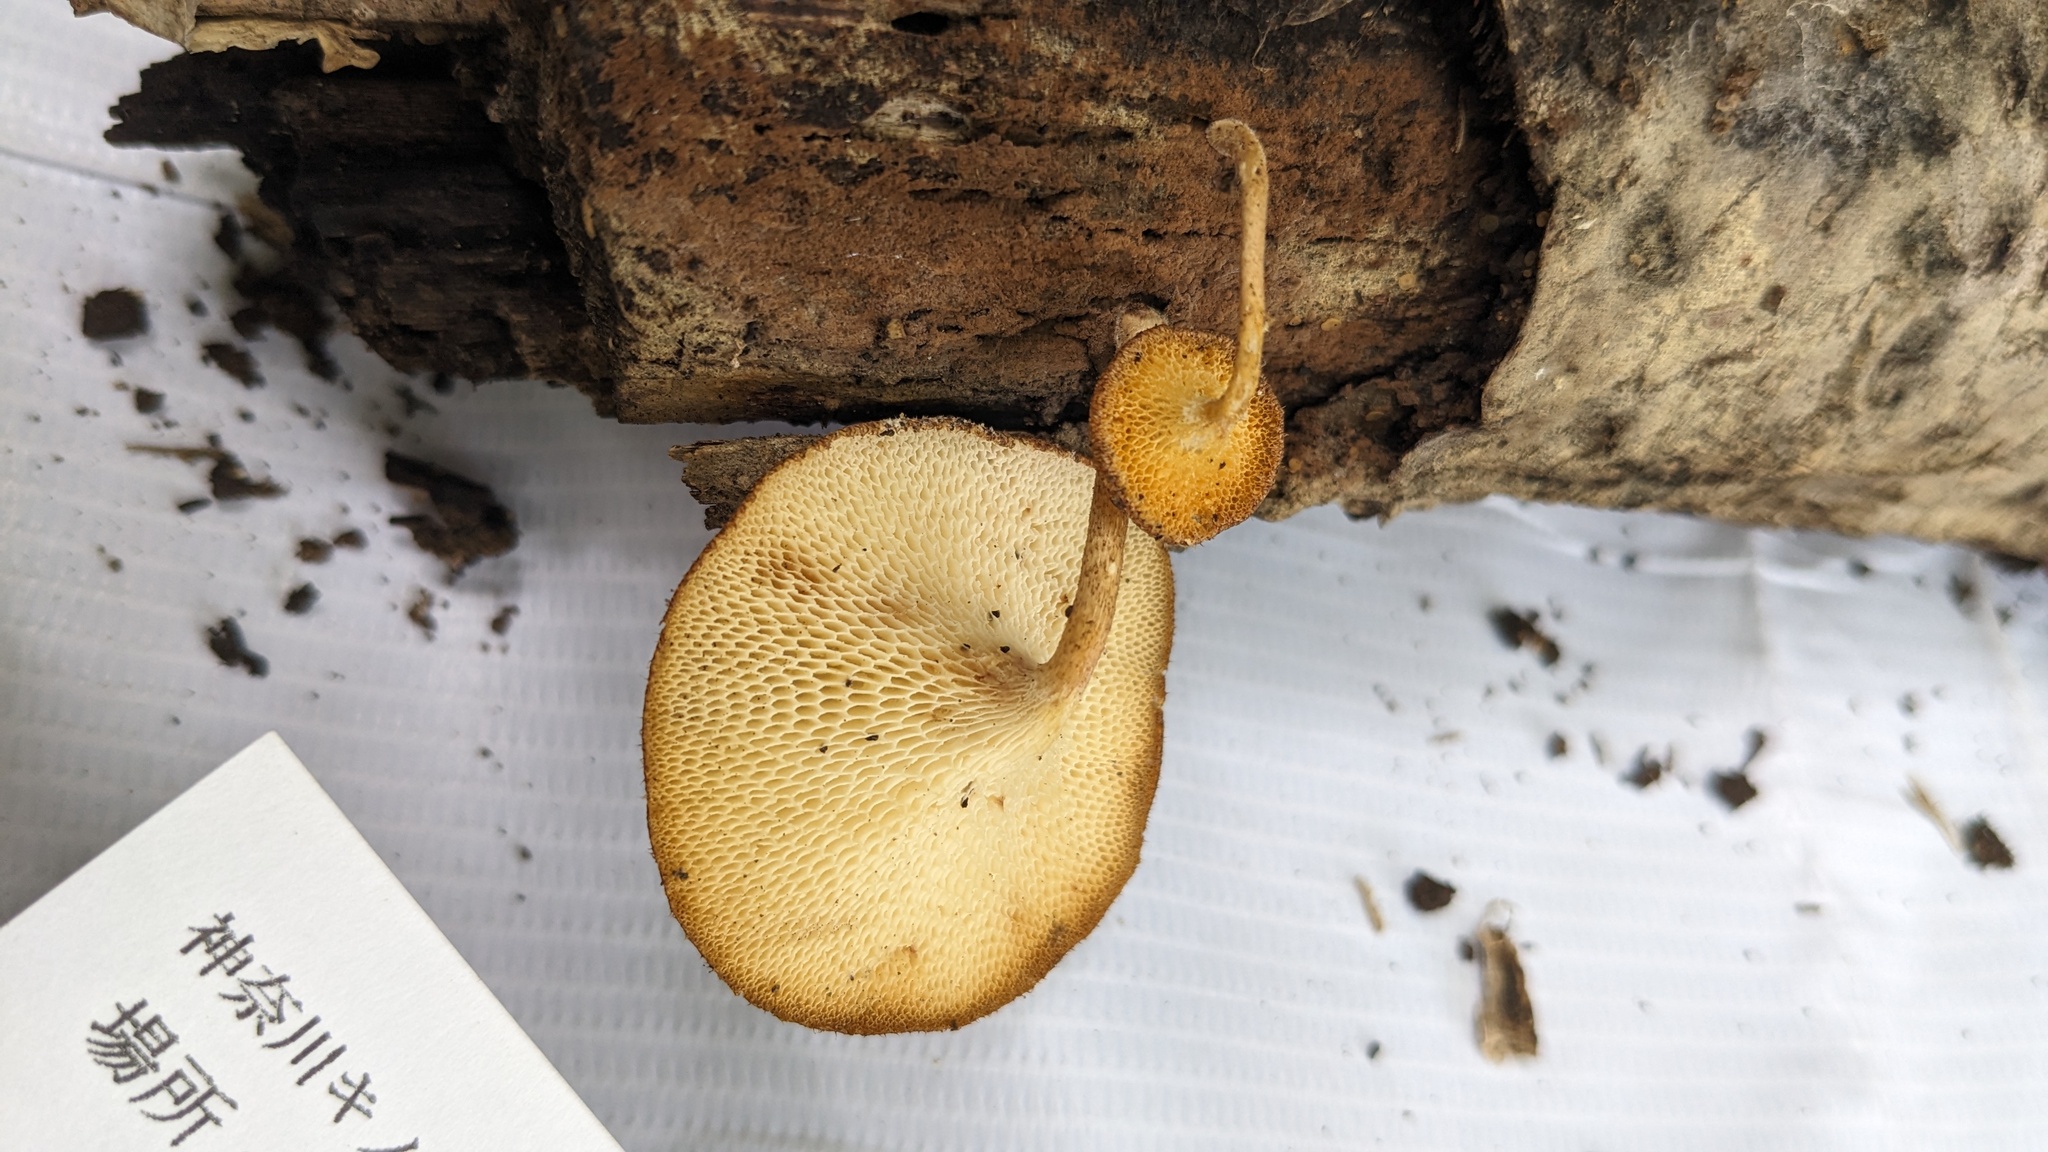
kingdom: Fungi
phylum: Basidiomycota
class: Agaricomycetes
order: Polyporales
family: Polyporaceae
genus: Lentinus
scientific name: Lentinus arcularius
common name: Spring polypore
